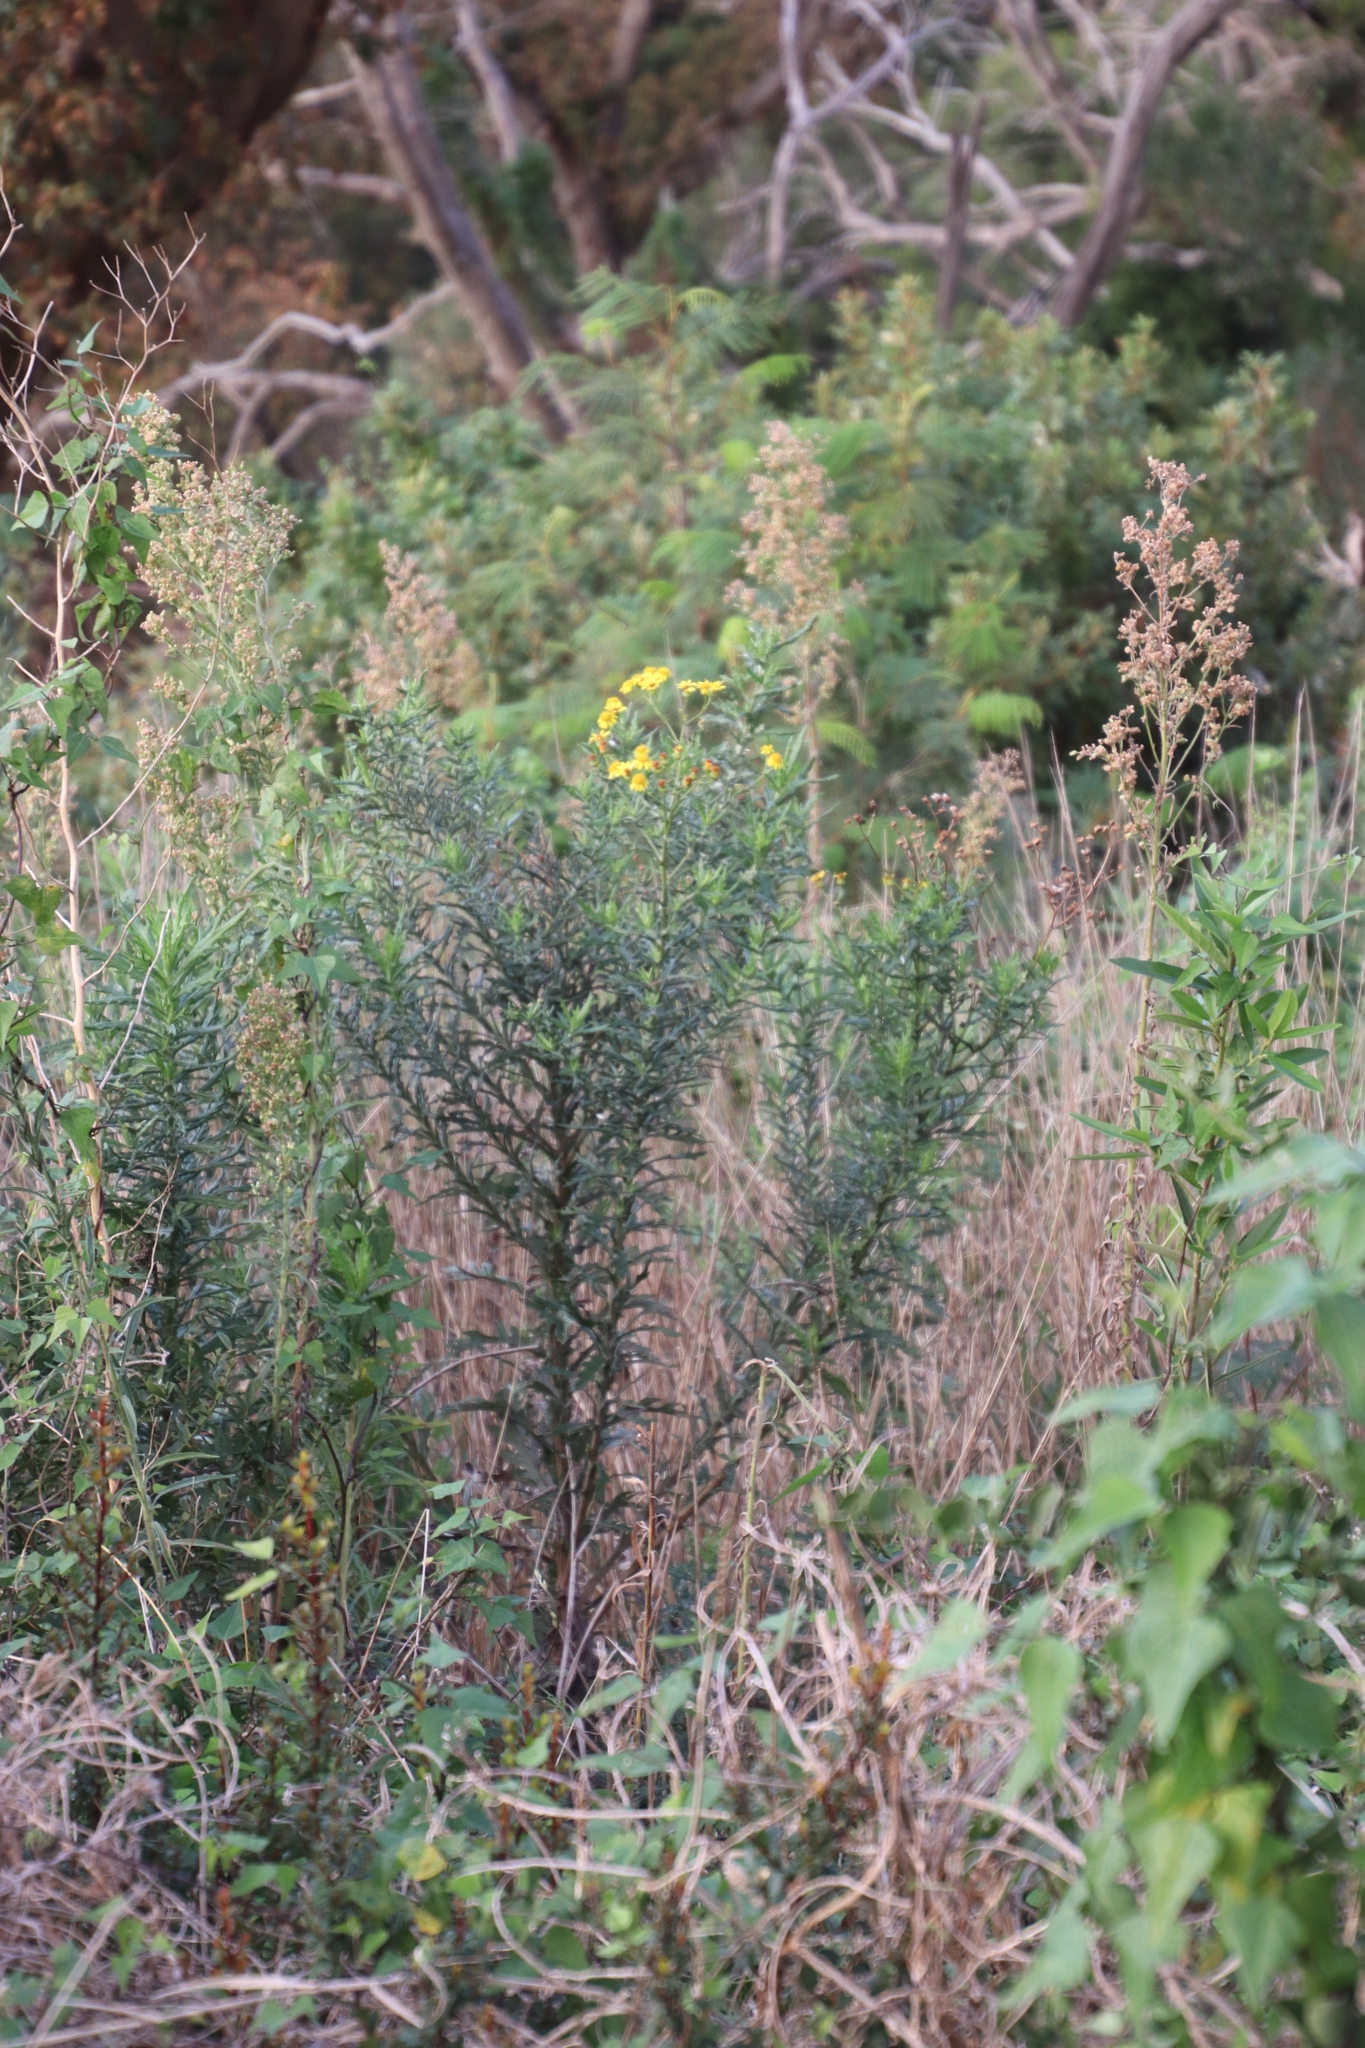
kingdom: Plantae
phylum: Tracheophyta
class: Magnoliopsida
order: Asterales
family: Asteraceae
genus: Senecio
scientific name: Senecio pterophorus
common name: Shoddy ragwort
